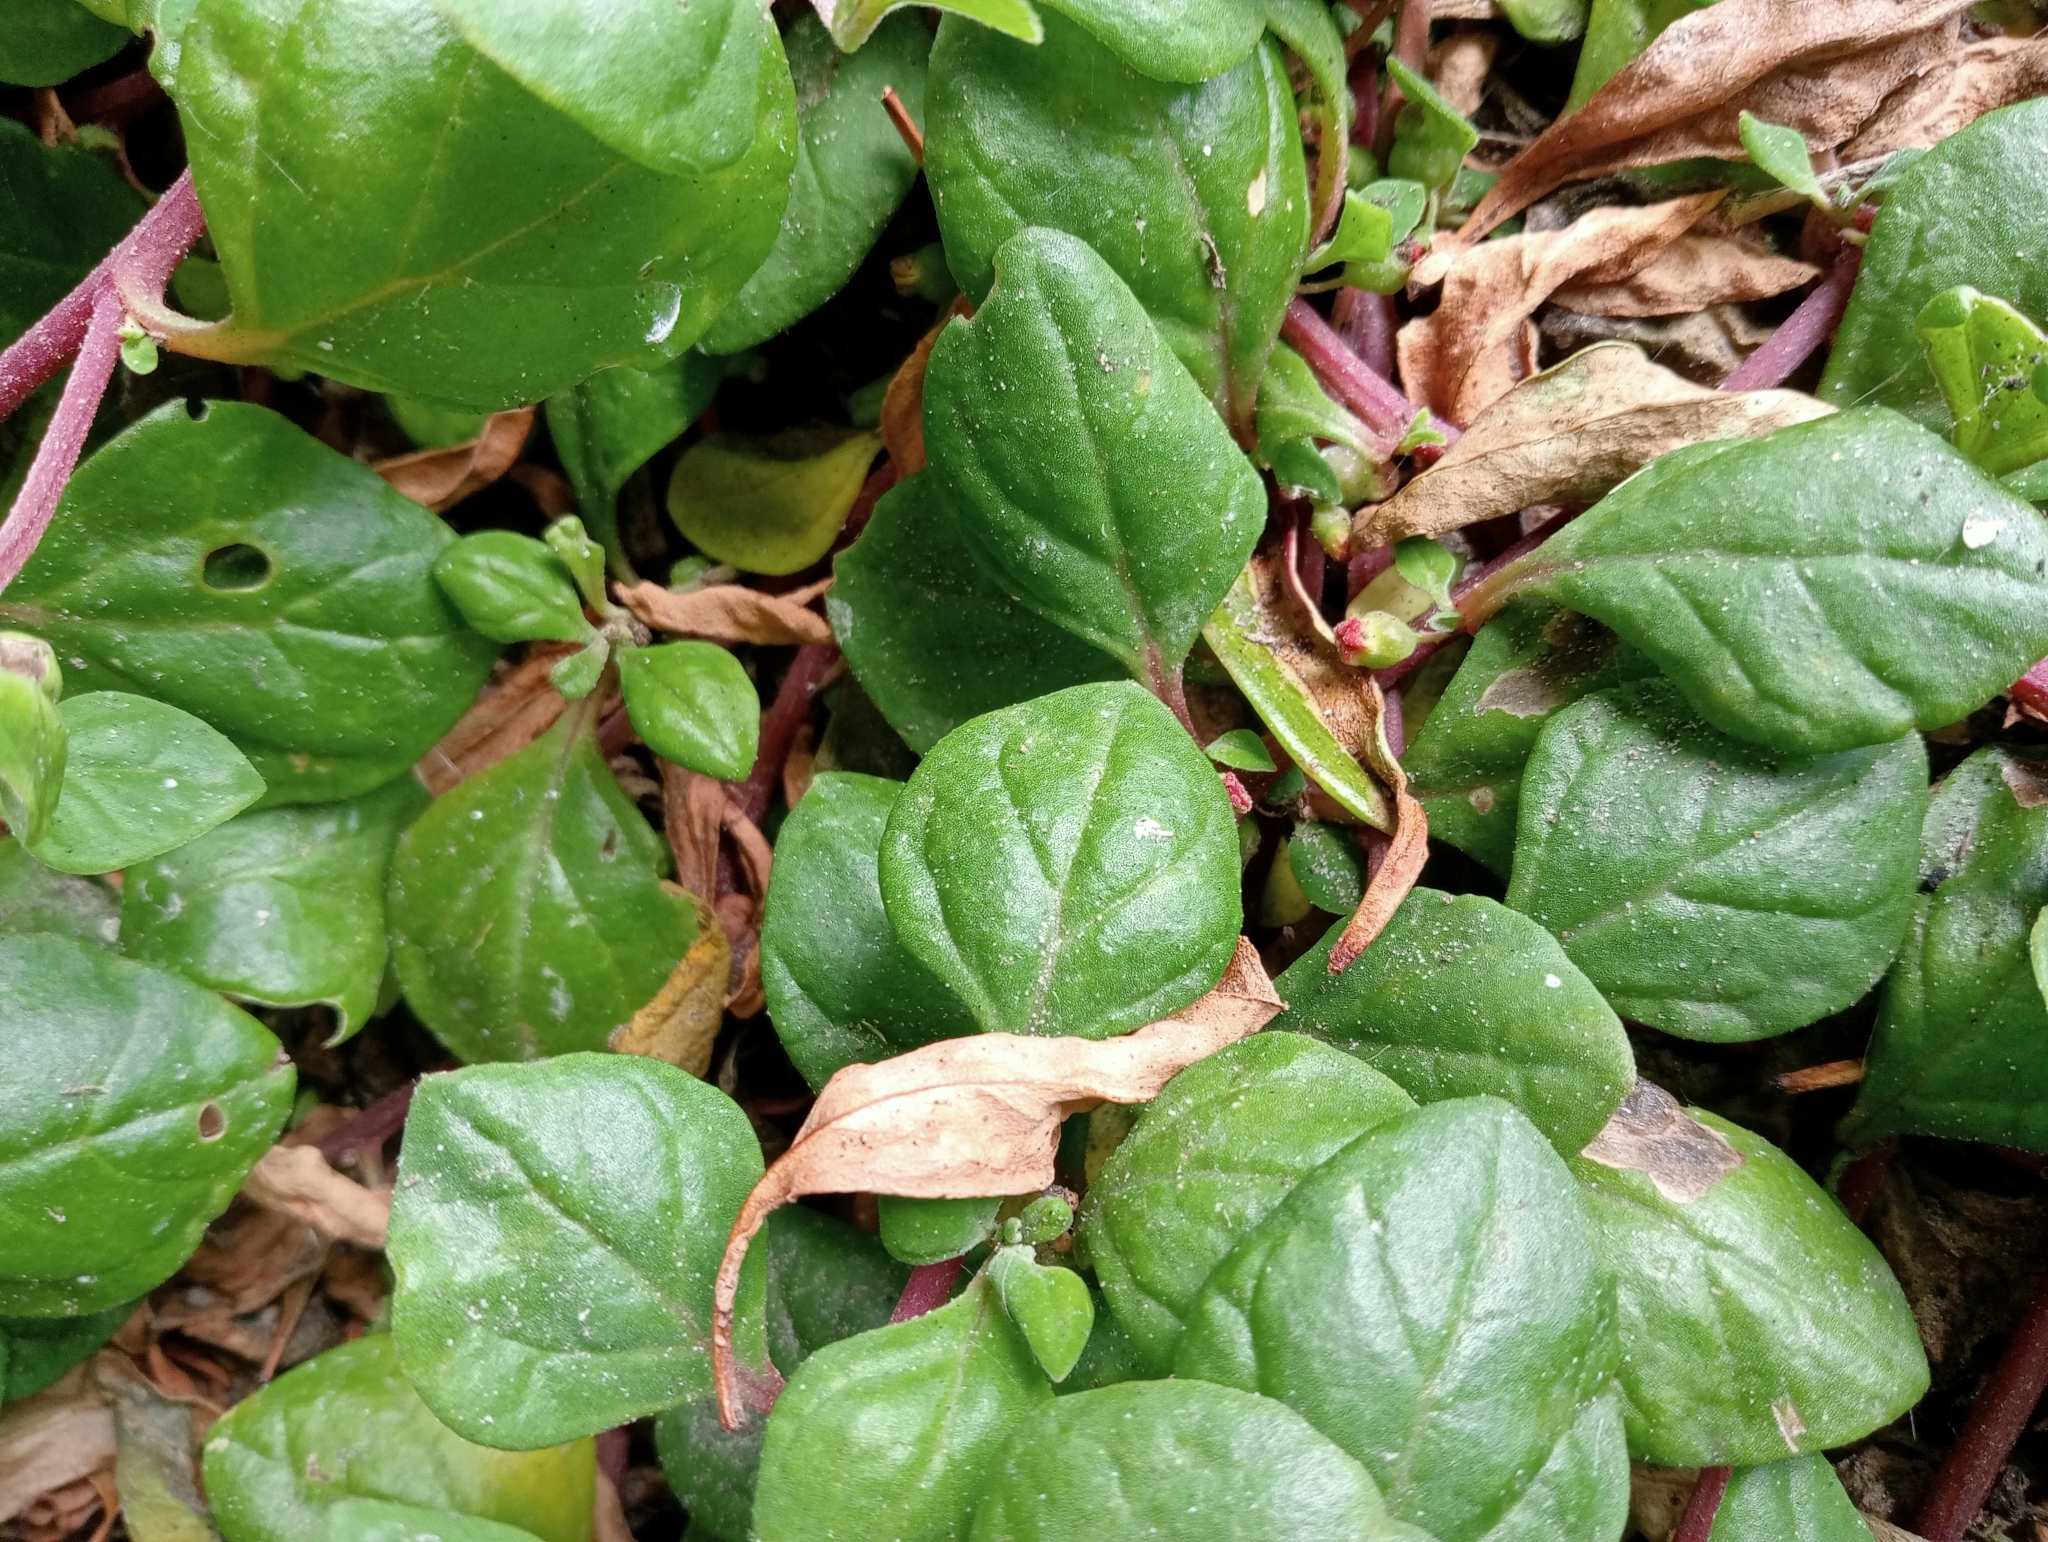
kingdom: Plantae
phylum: Tracheophyta
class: Magnoliopsida
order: Caryophyllales
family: Aizoaceae
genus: Tetragonia
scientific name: Tetragonia implexicoma
